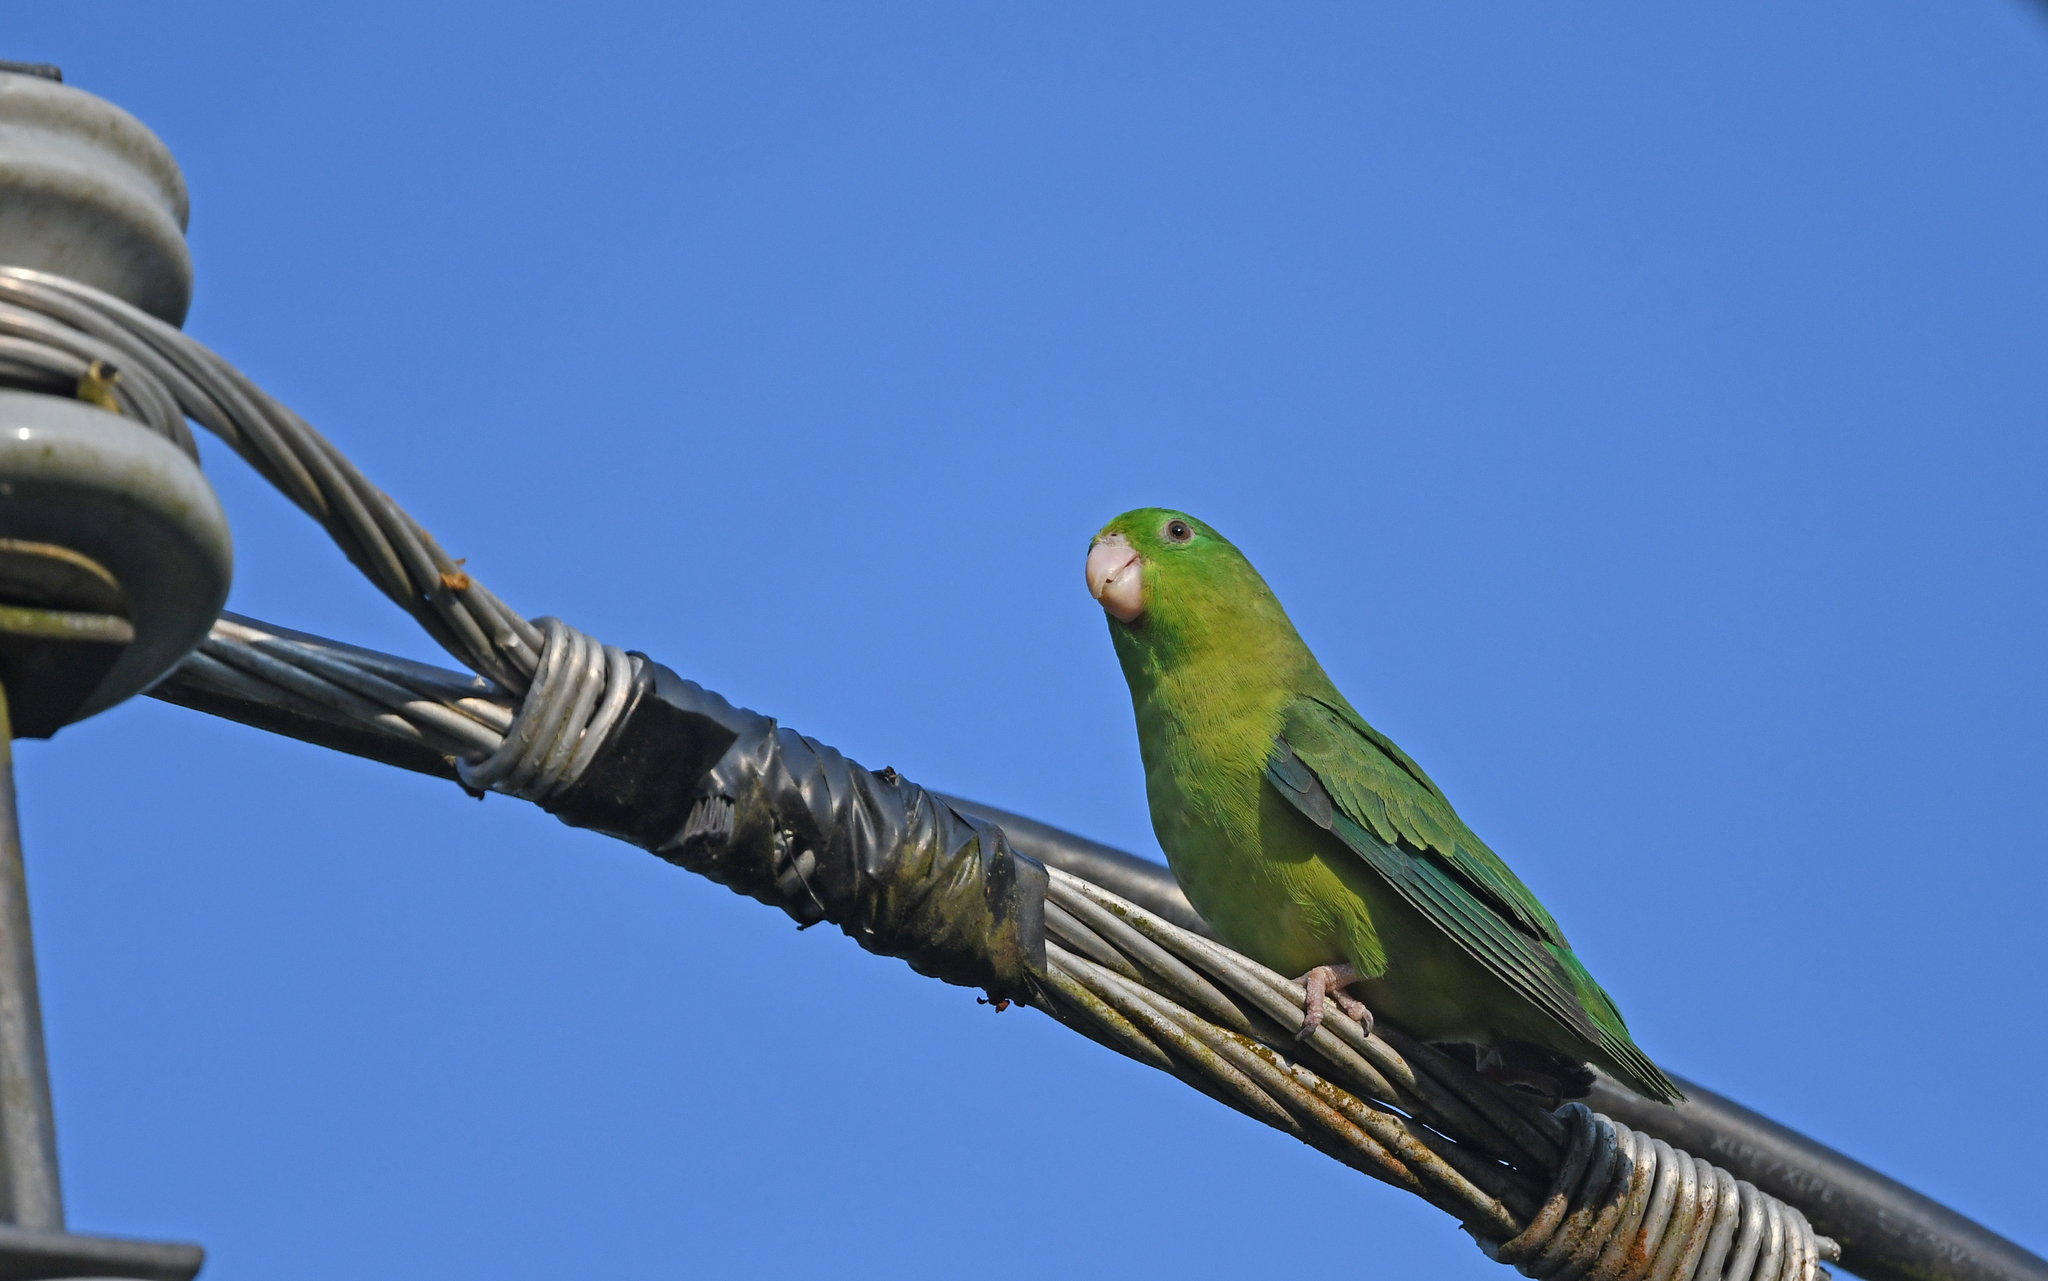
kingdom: Animalia
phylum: Chordata
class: Aves
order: Psittaciformes
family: Psittacidae
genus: Forpus
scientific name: Forpus conspicillatus
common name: Spectacled parrotlet
